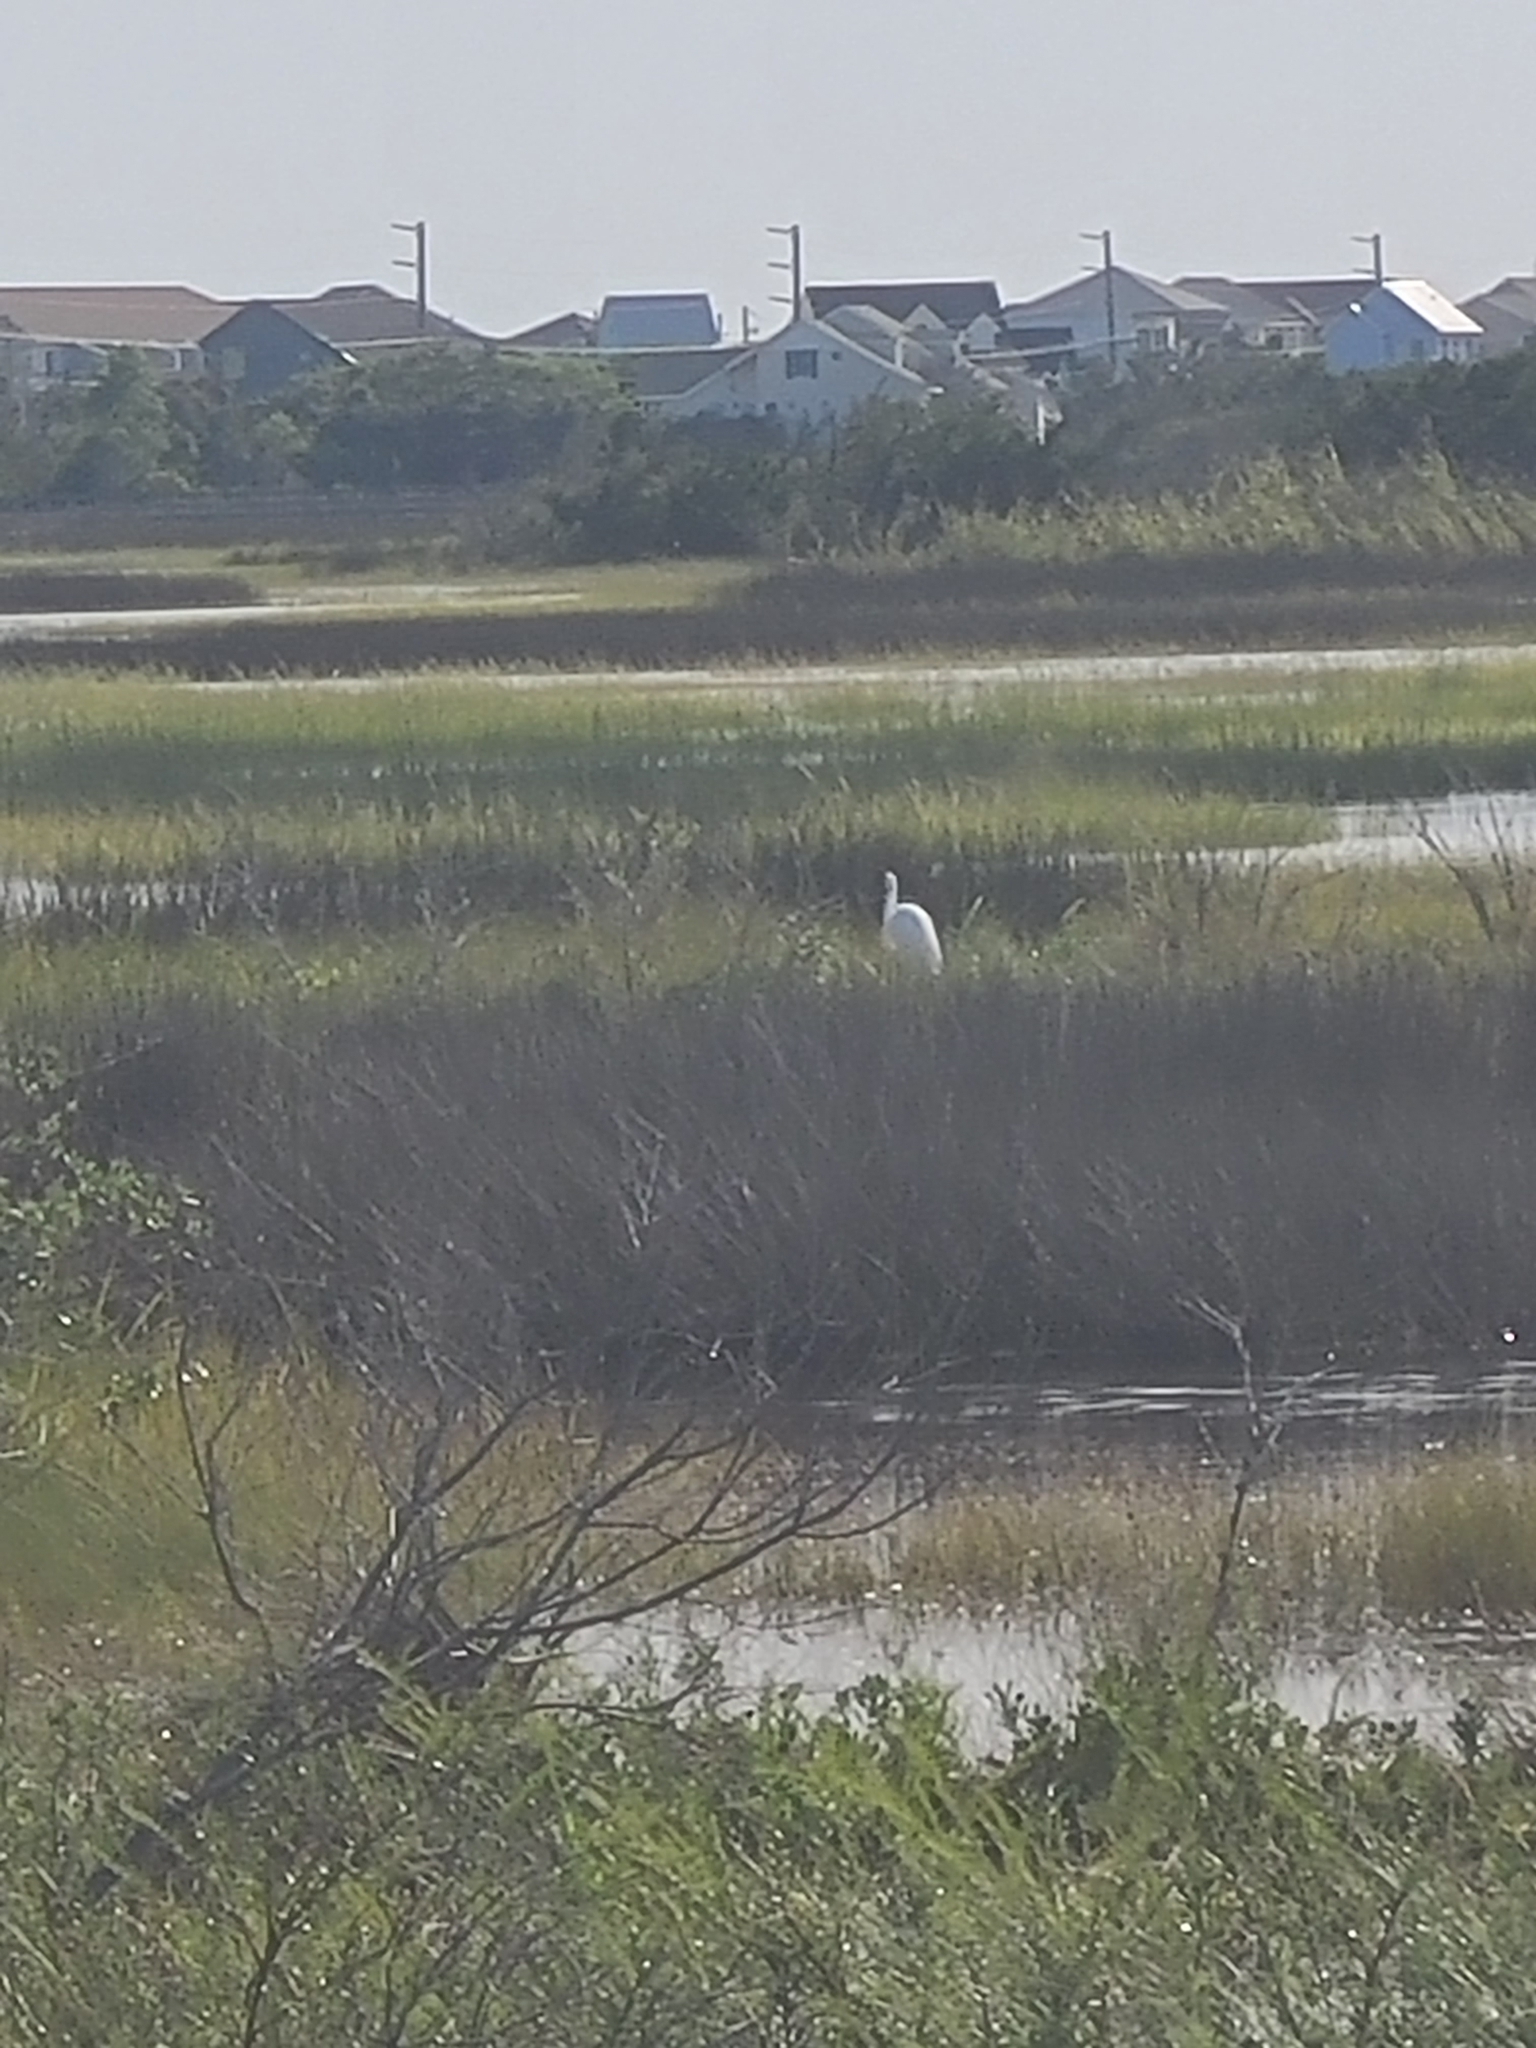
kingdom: Animalia
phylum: Chordata
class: Aves
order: Pelecaniformes
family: Ardeidae
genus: Ardea
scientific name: Ardea alba
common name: Great egret
